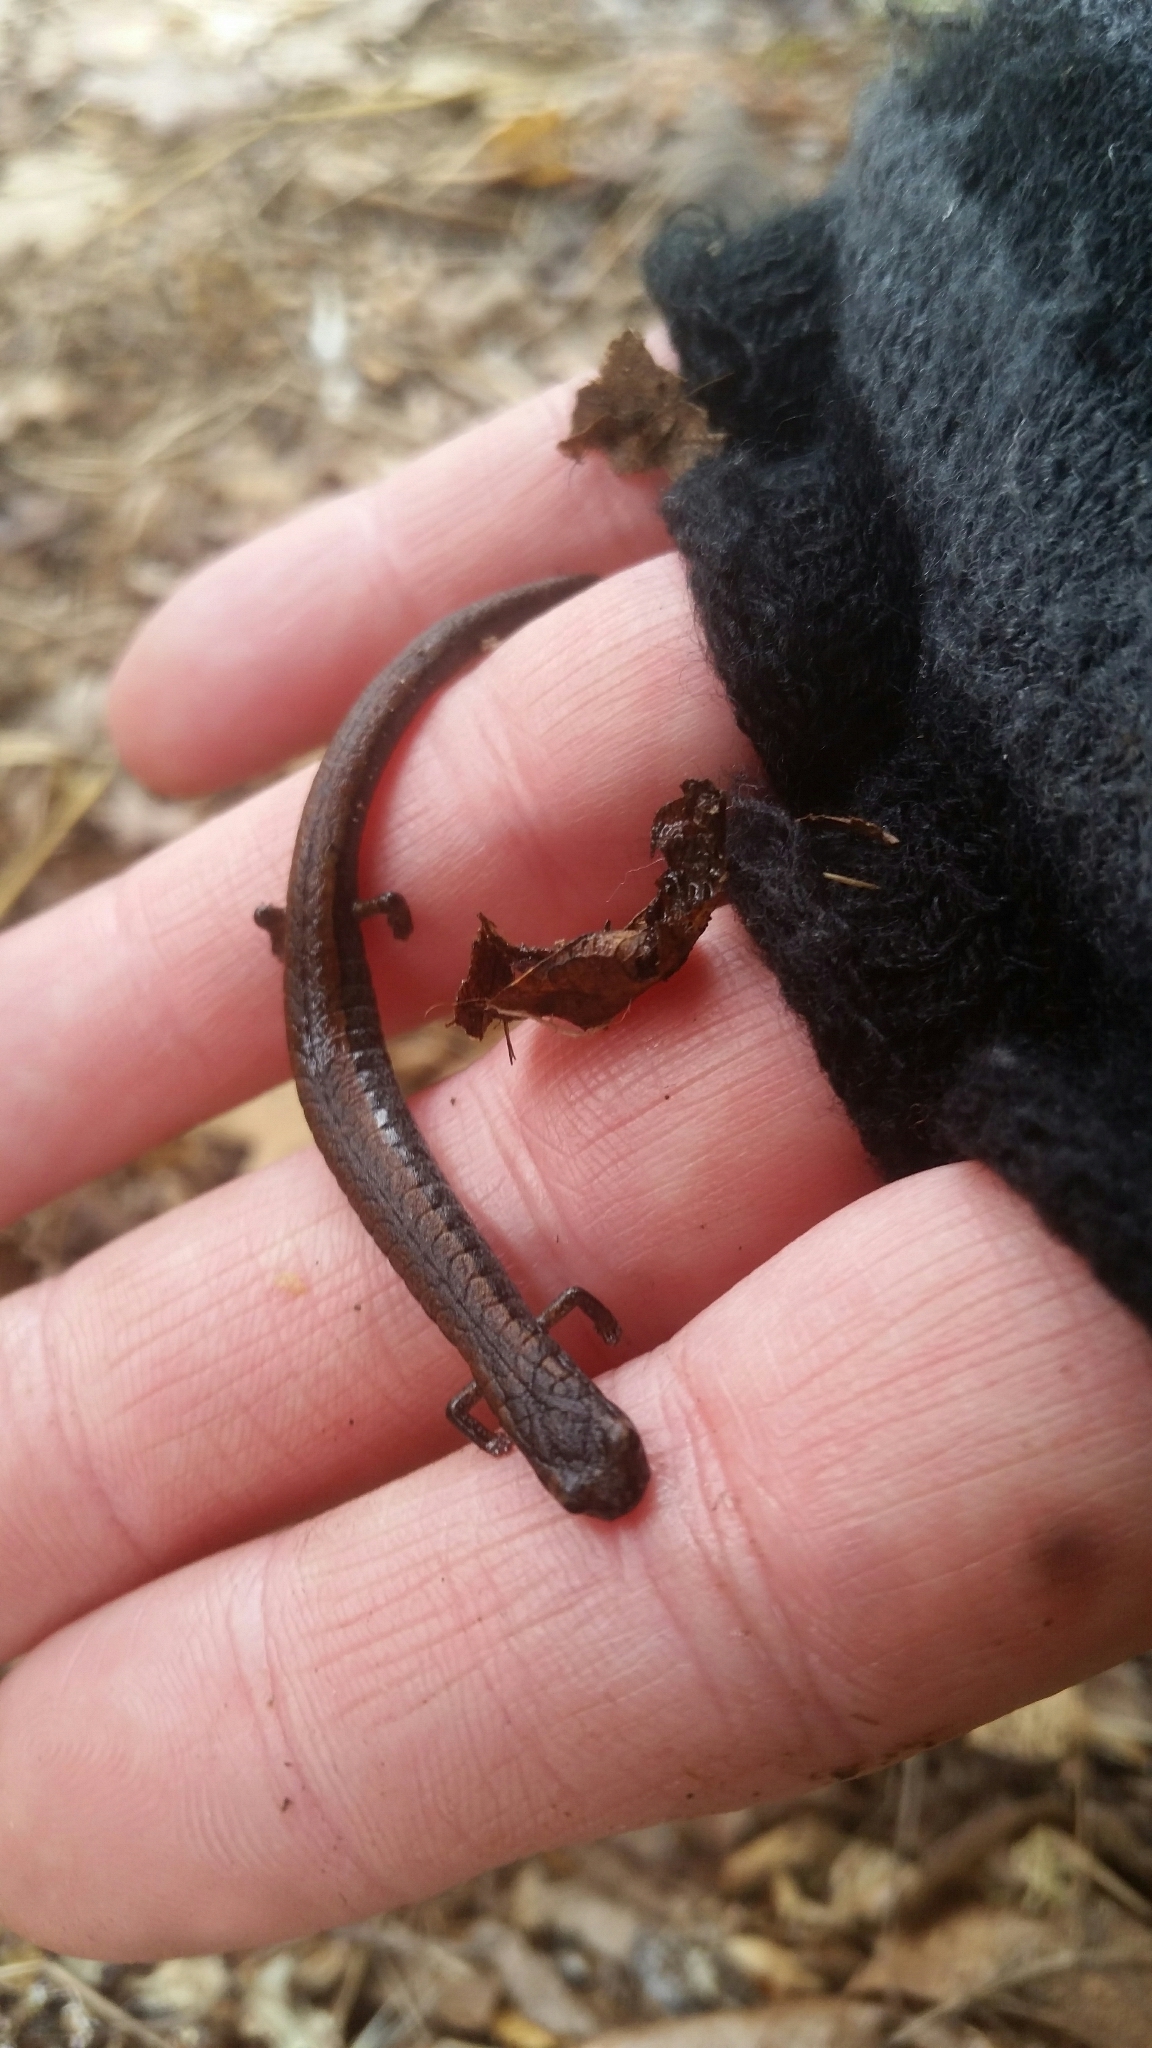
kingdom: Animalia
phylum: Chordata
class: Amphibia
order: Caudata
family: Plethodontidae
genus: Batrachoseps
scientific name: Batrachoseps attenuatus
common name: California slender salamander
